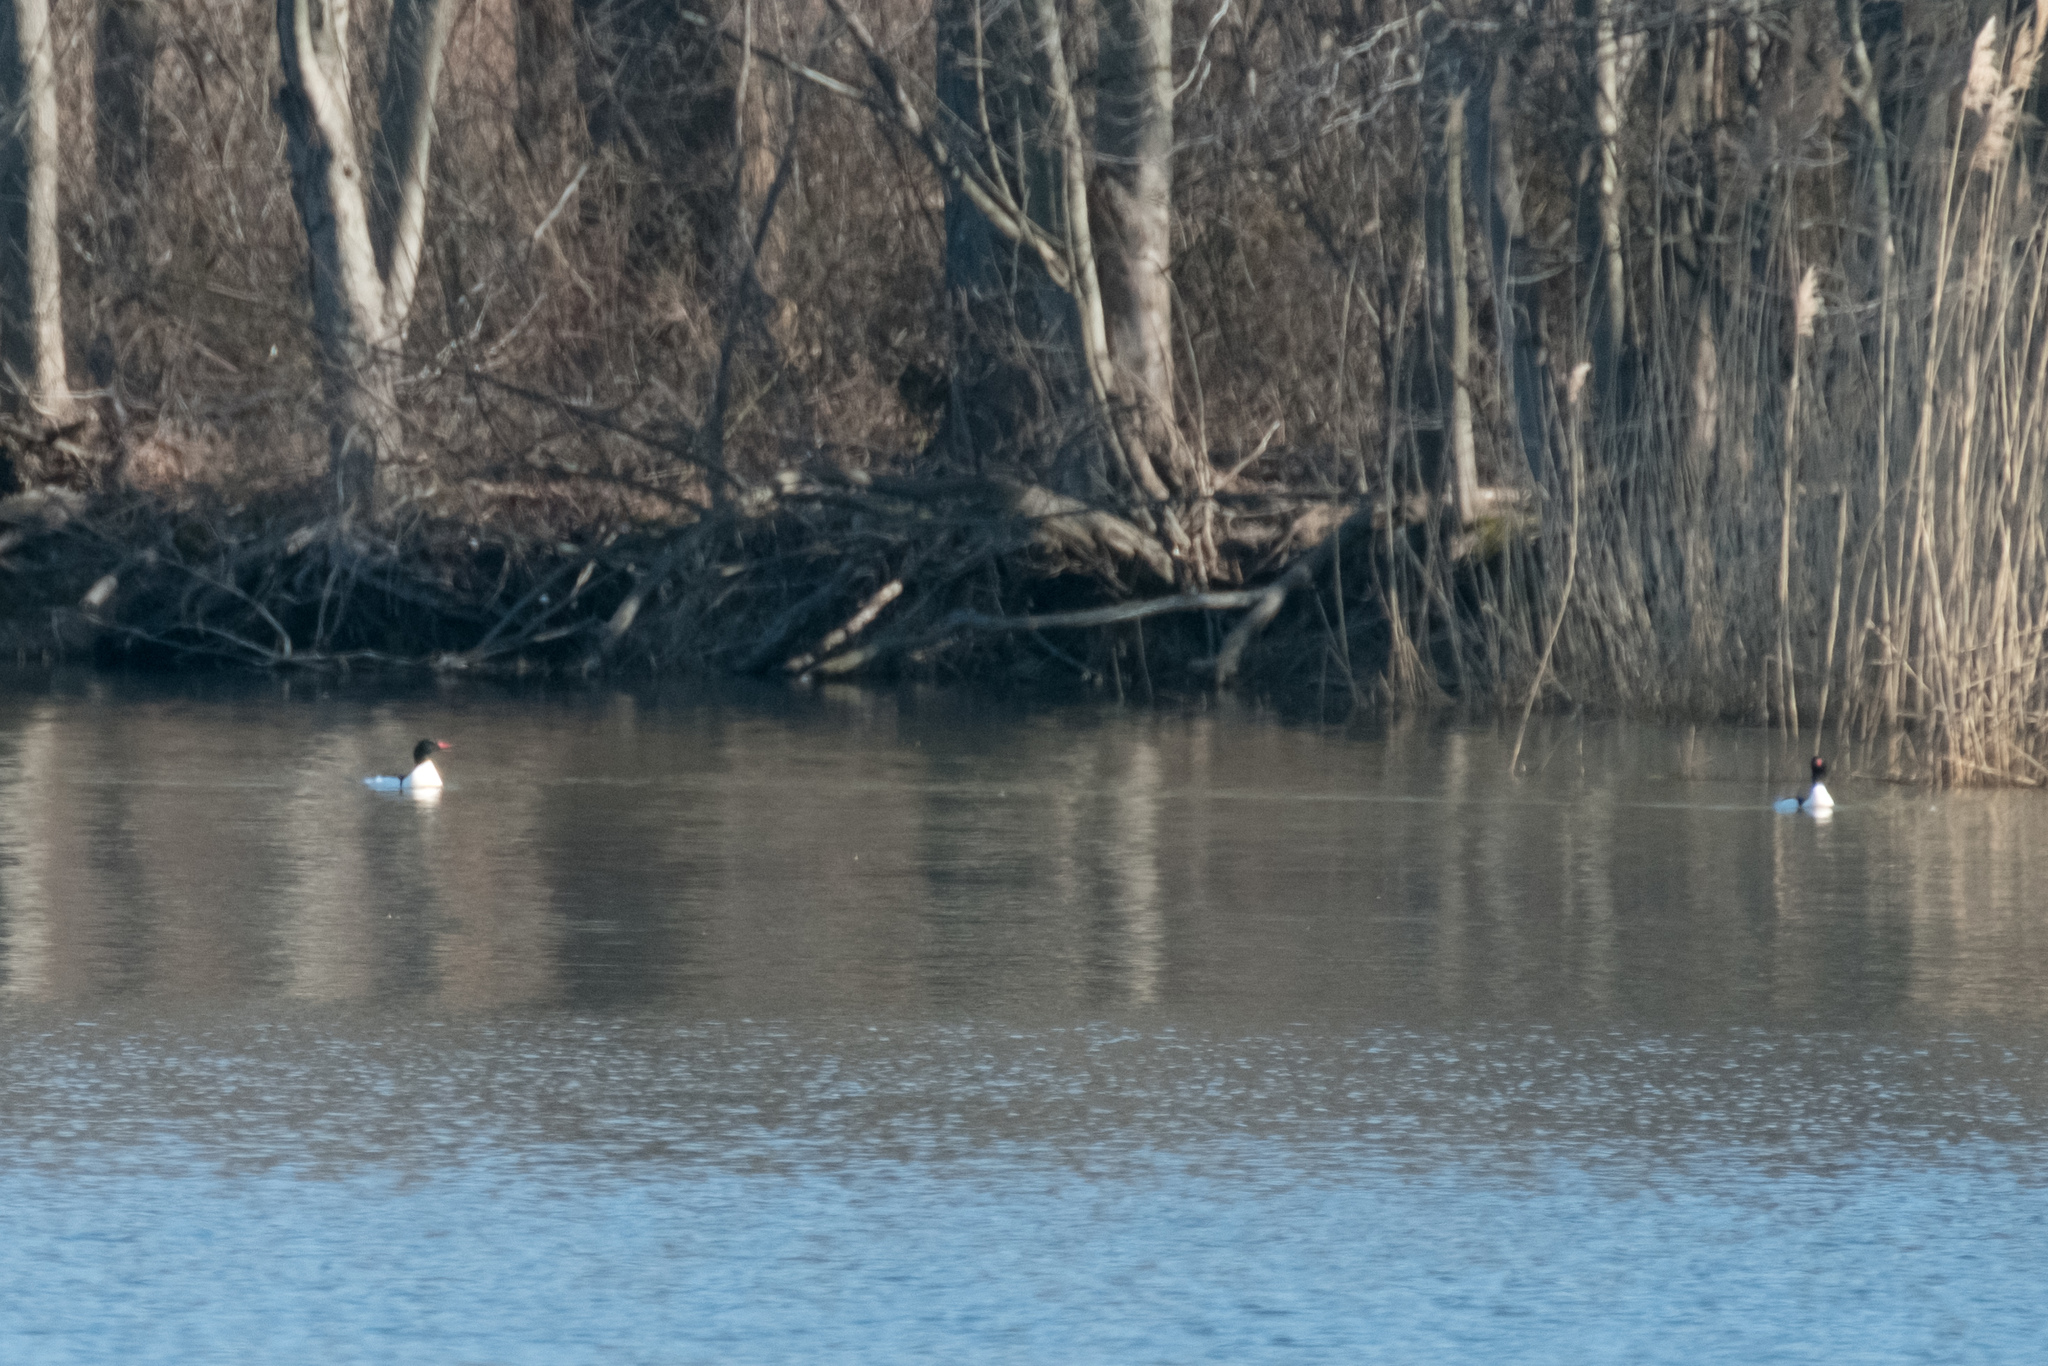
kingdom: Animalia
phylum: Chordata
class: Aves
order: Anseriformes
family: Anatidae
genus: Mergus
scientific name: Mergus merganser
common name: Common merganser
